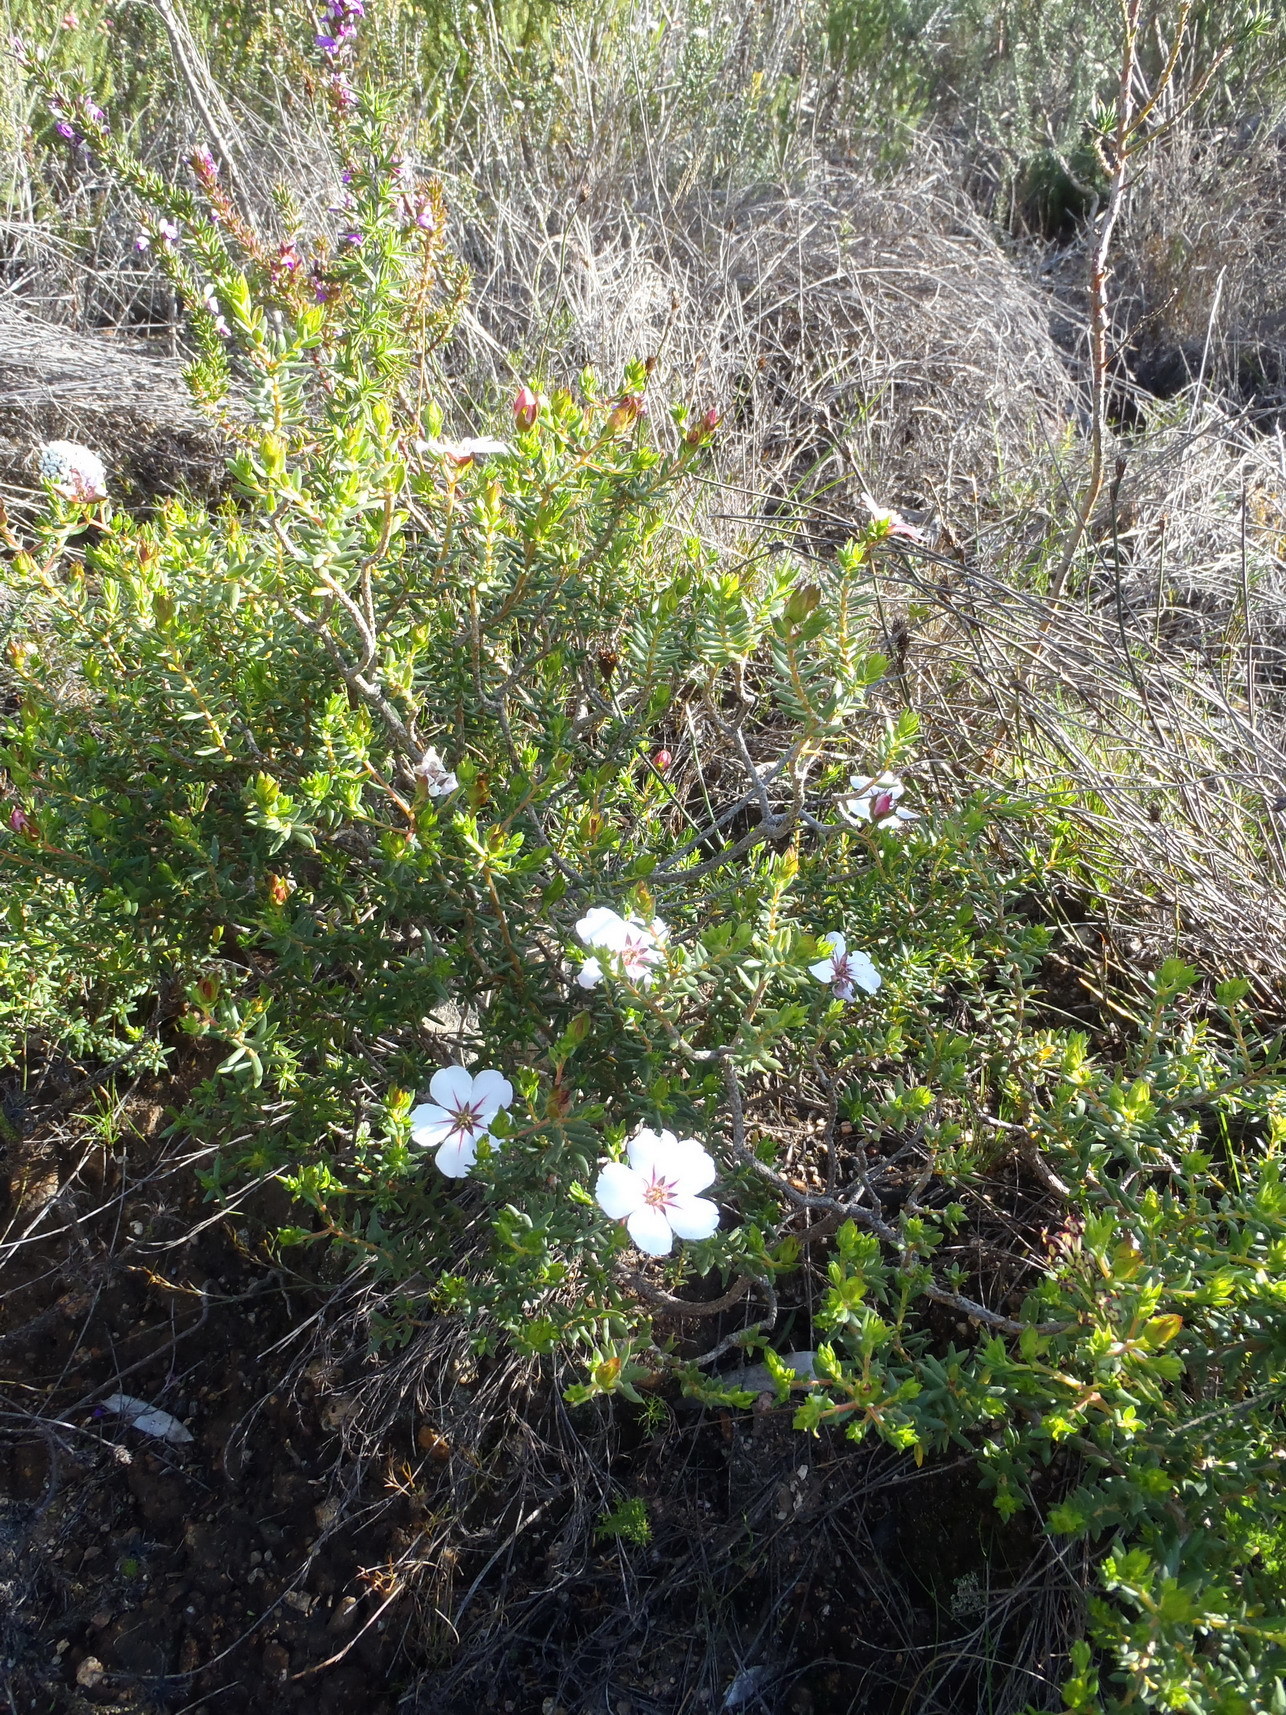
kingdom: Plantae
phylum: Tracheophyta
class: Magnoliopsida
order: Sapindales
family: Rutaceae
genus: Adenandra
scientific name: Adenandra uniflora
